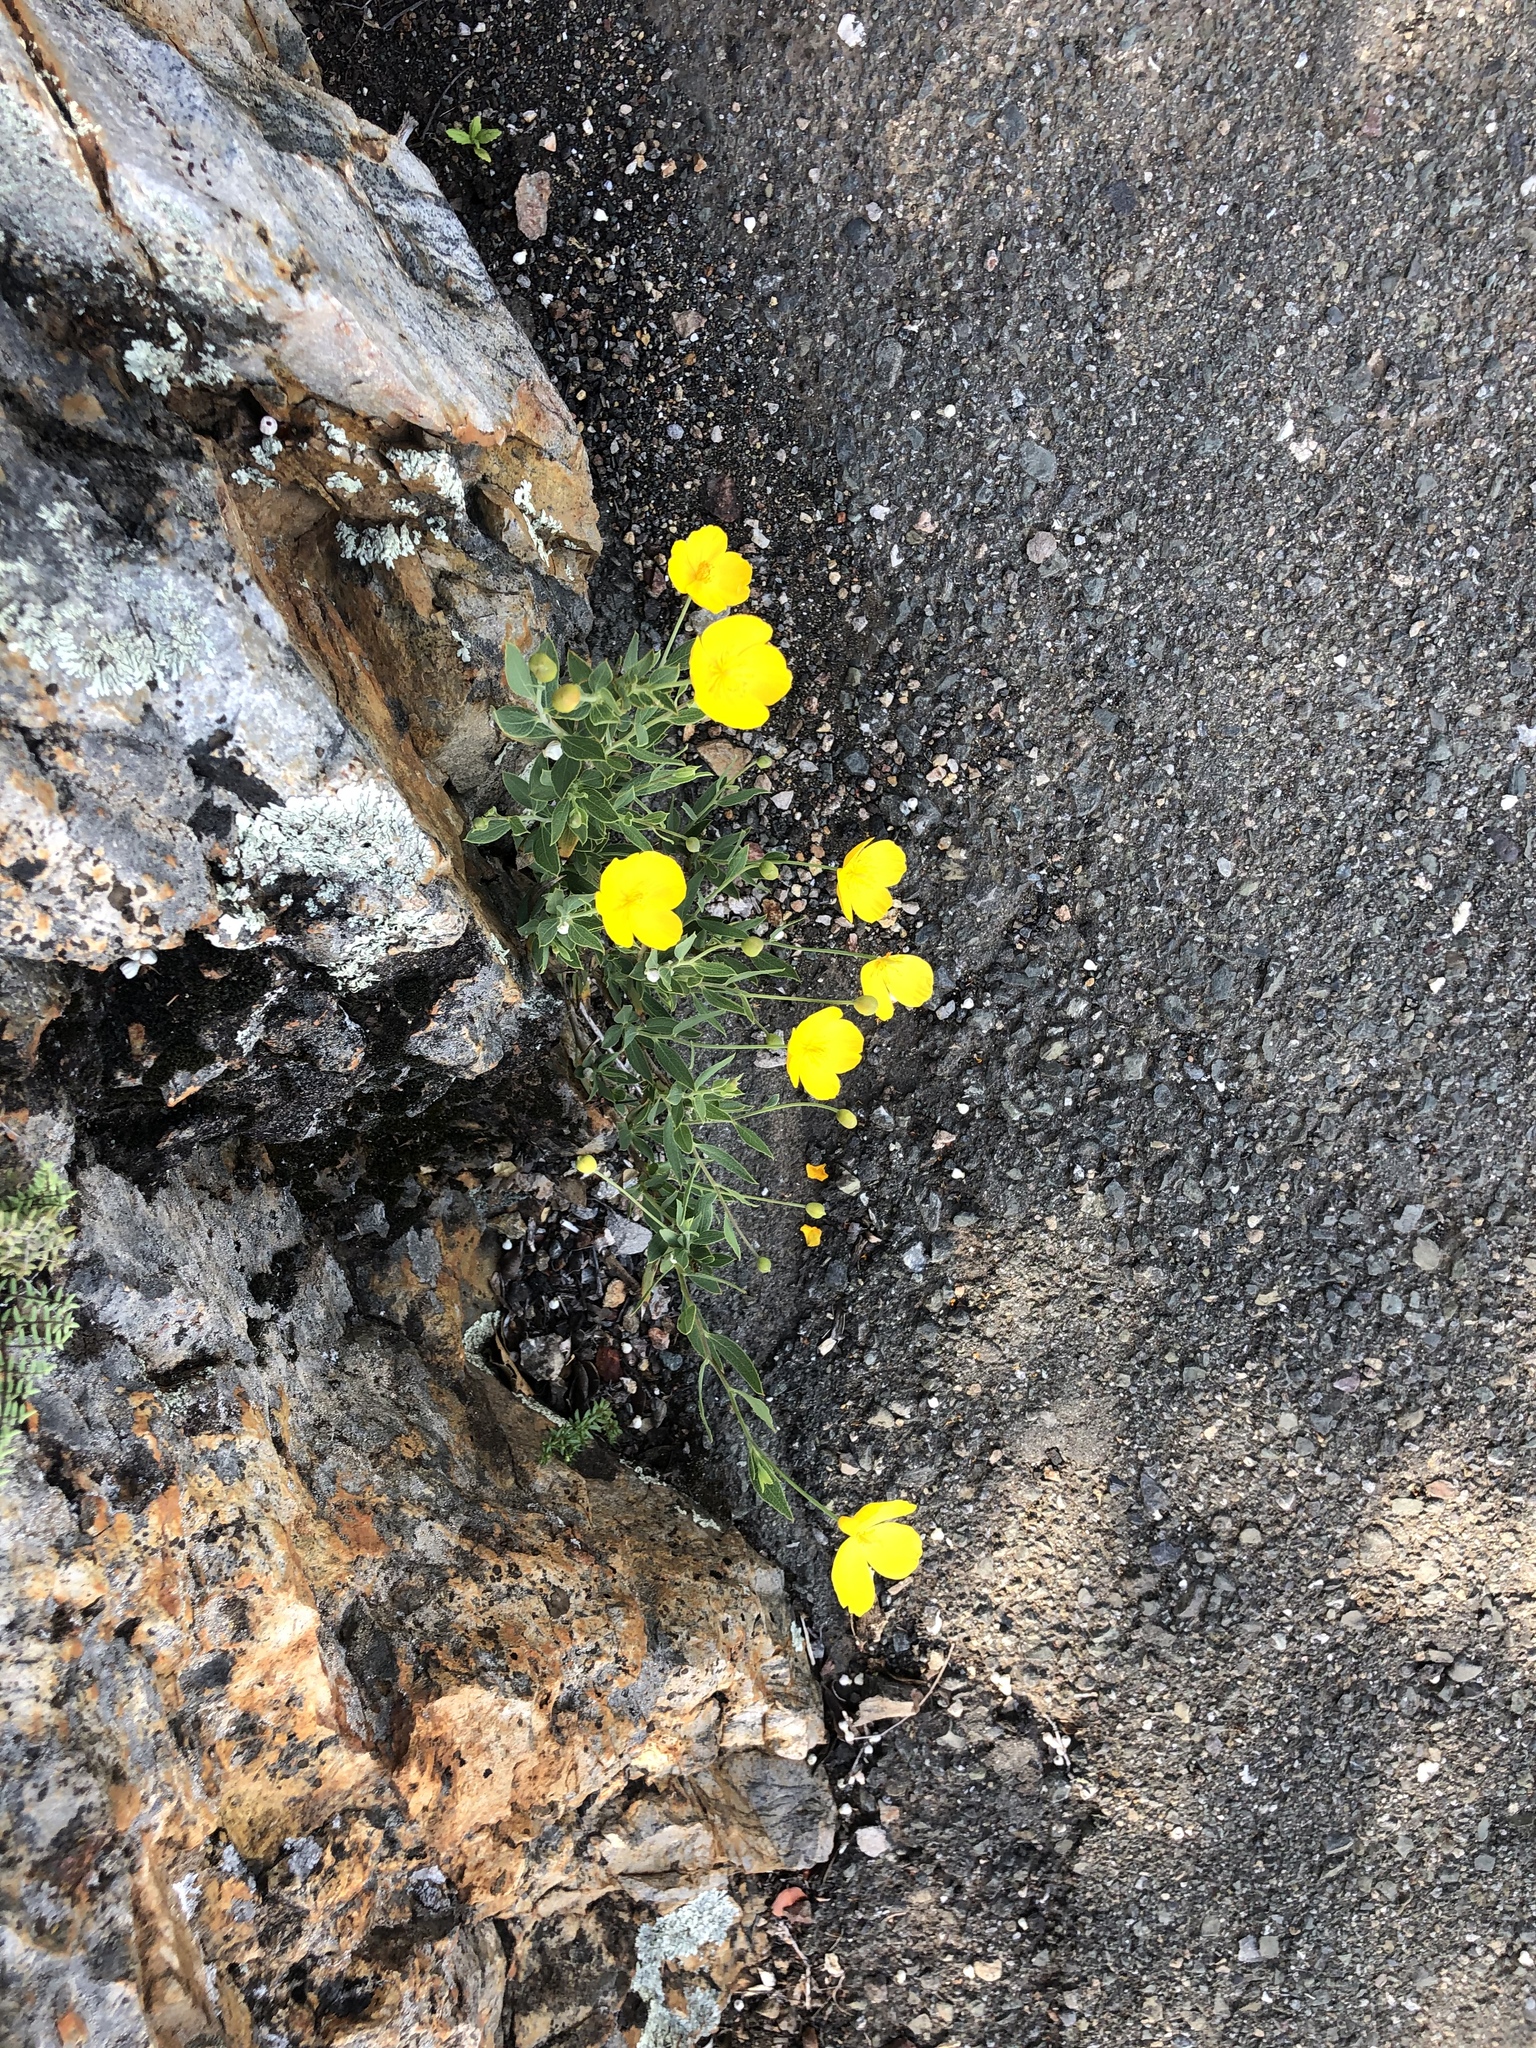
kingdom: Plantae
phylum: Tracheophyta
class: Magnoliopsida
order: Ranunculales
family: Papaveraceae
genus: Dendromecon
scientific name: Dendromecon rigida
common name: Tree poppy
